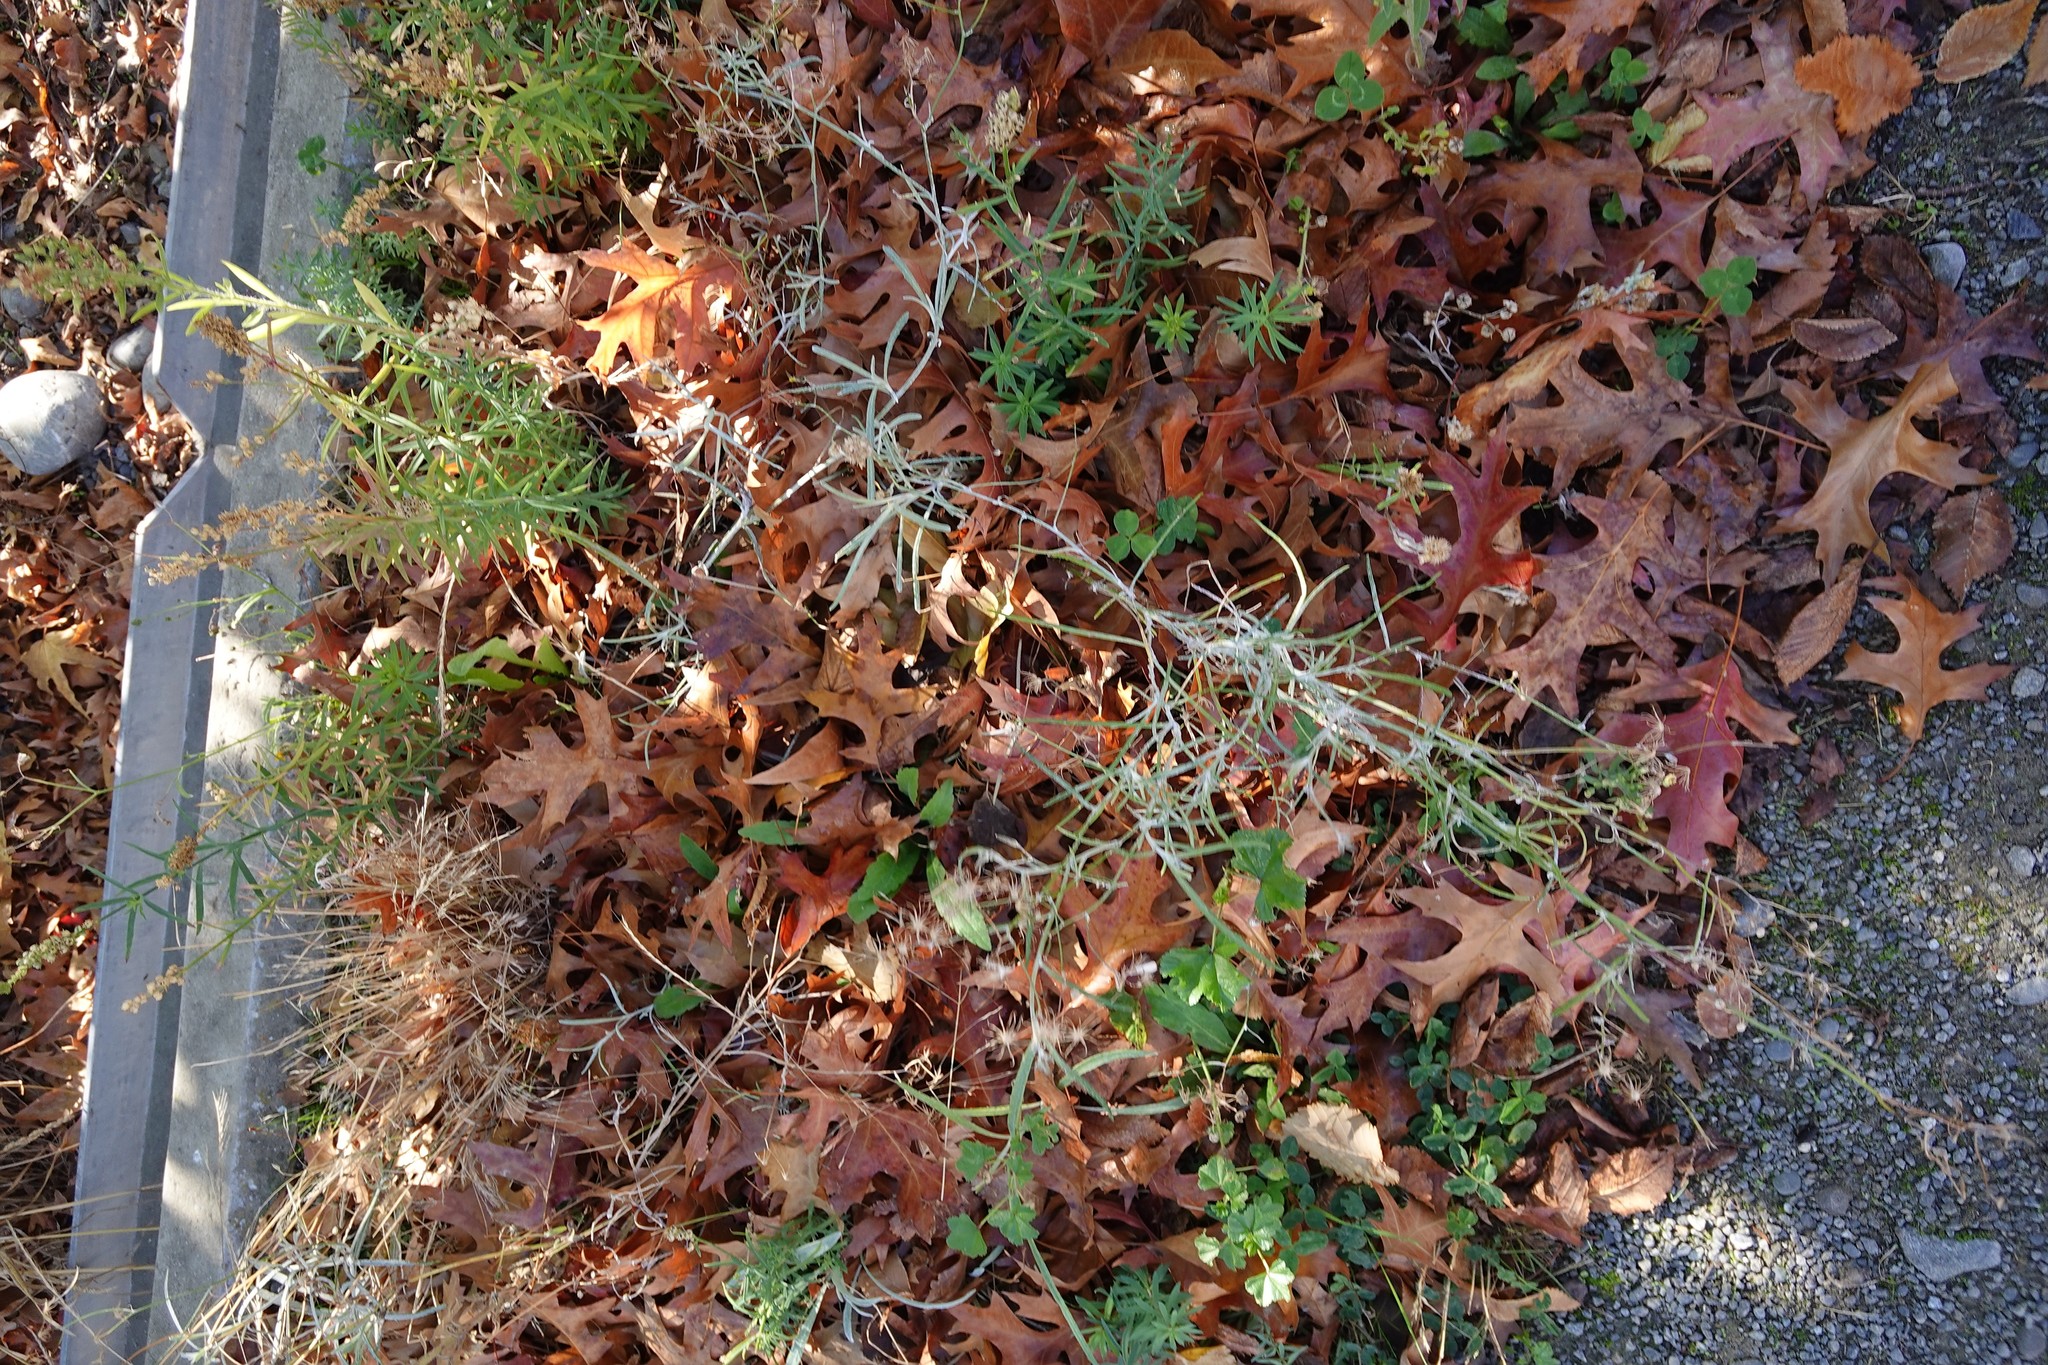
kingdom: Plantae
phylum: Tracheophyta
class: Magnoliopsida
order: Asterales
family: Asteraceae
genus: Senecio
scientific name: Senecio quadridentatus
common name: Cotton fireweed
